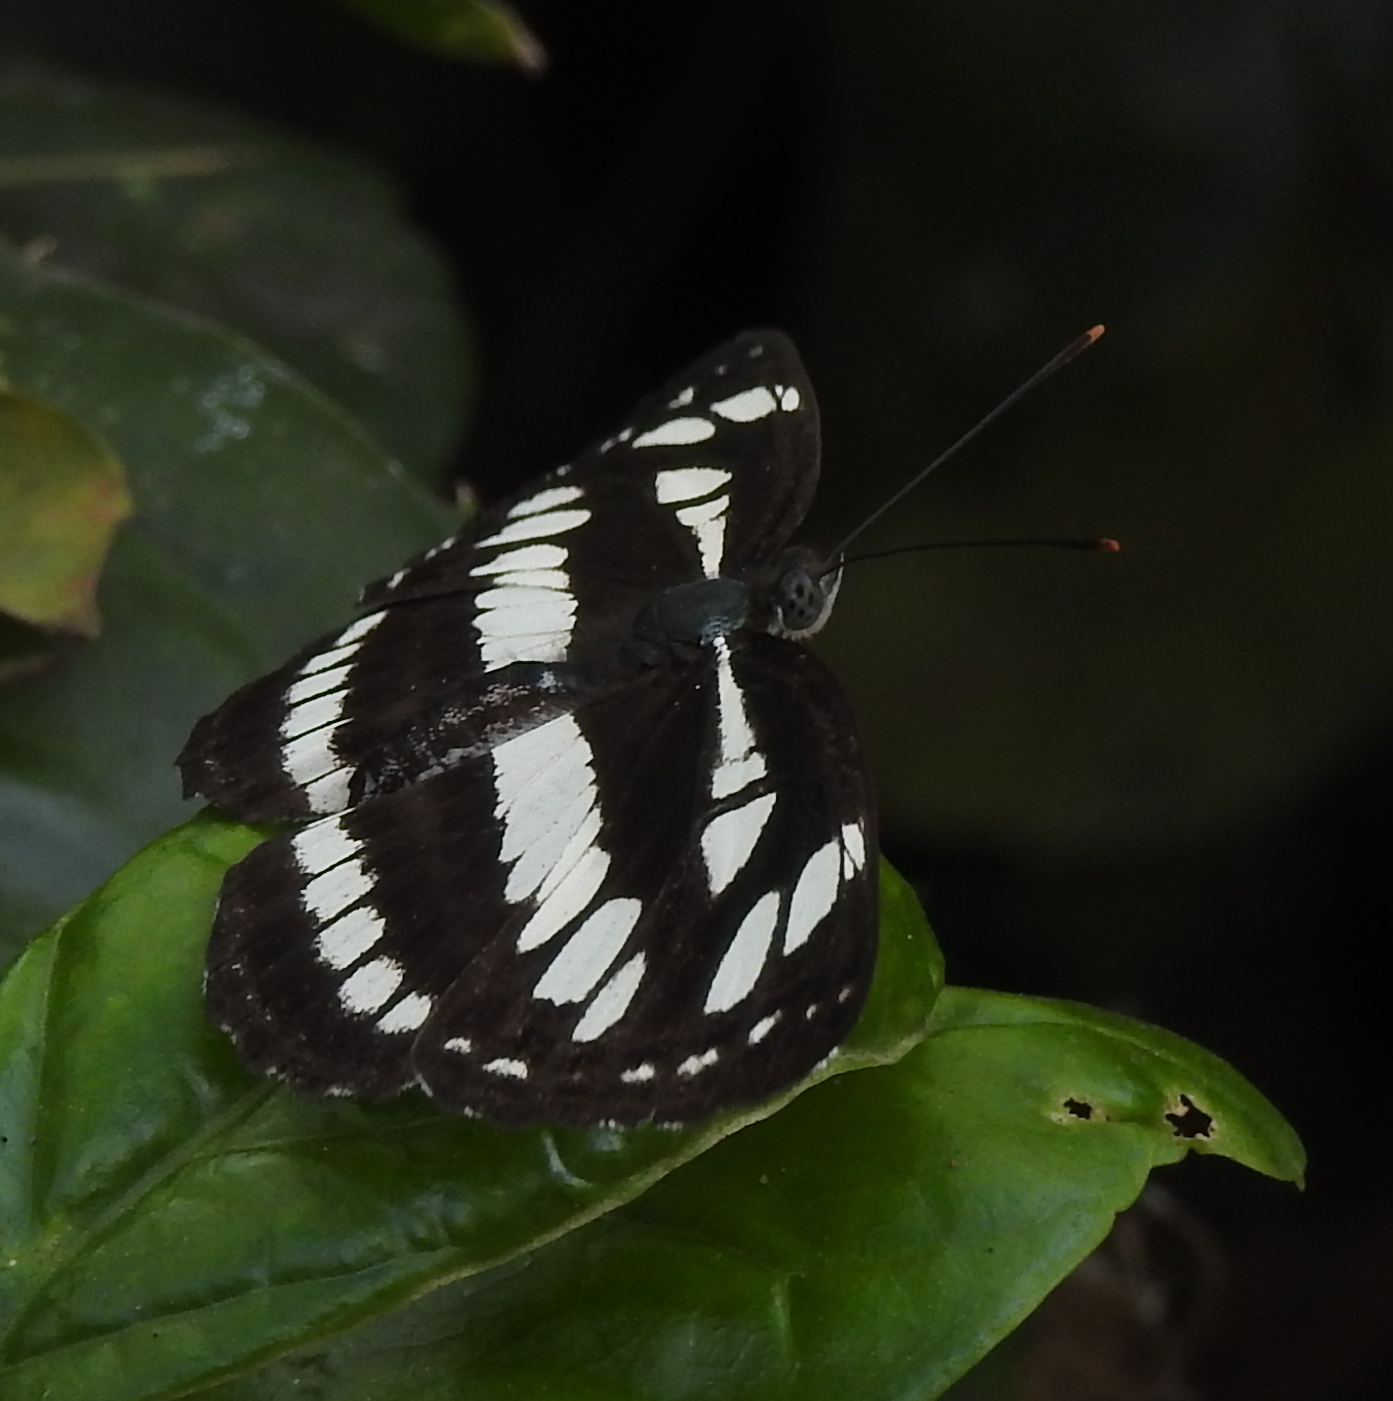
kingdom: Animalia
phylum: Arthropoda
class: Insecta
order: Lepidoptera
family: Nymphalidae
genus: Neptis
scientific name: Neptis hylas
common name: Common sailer
